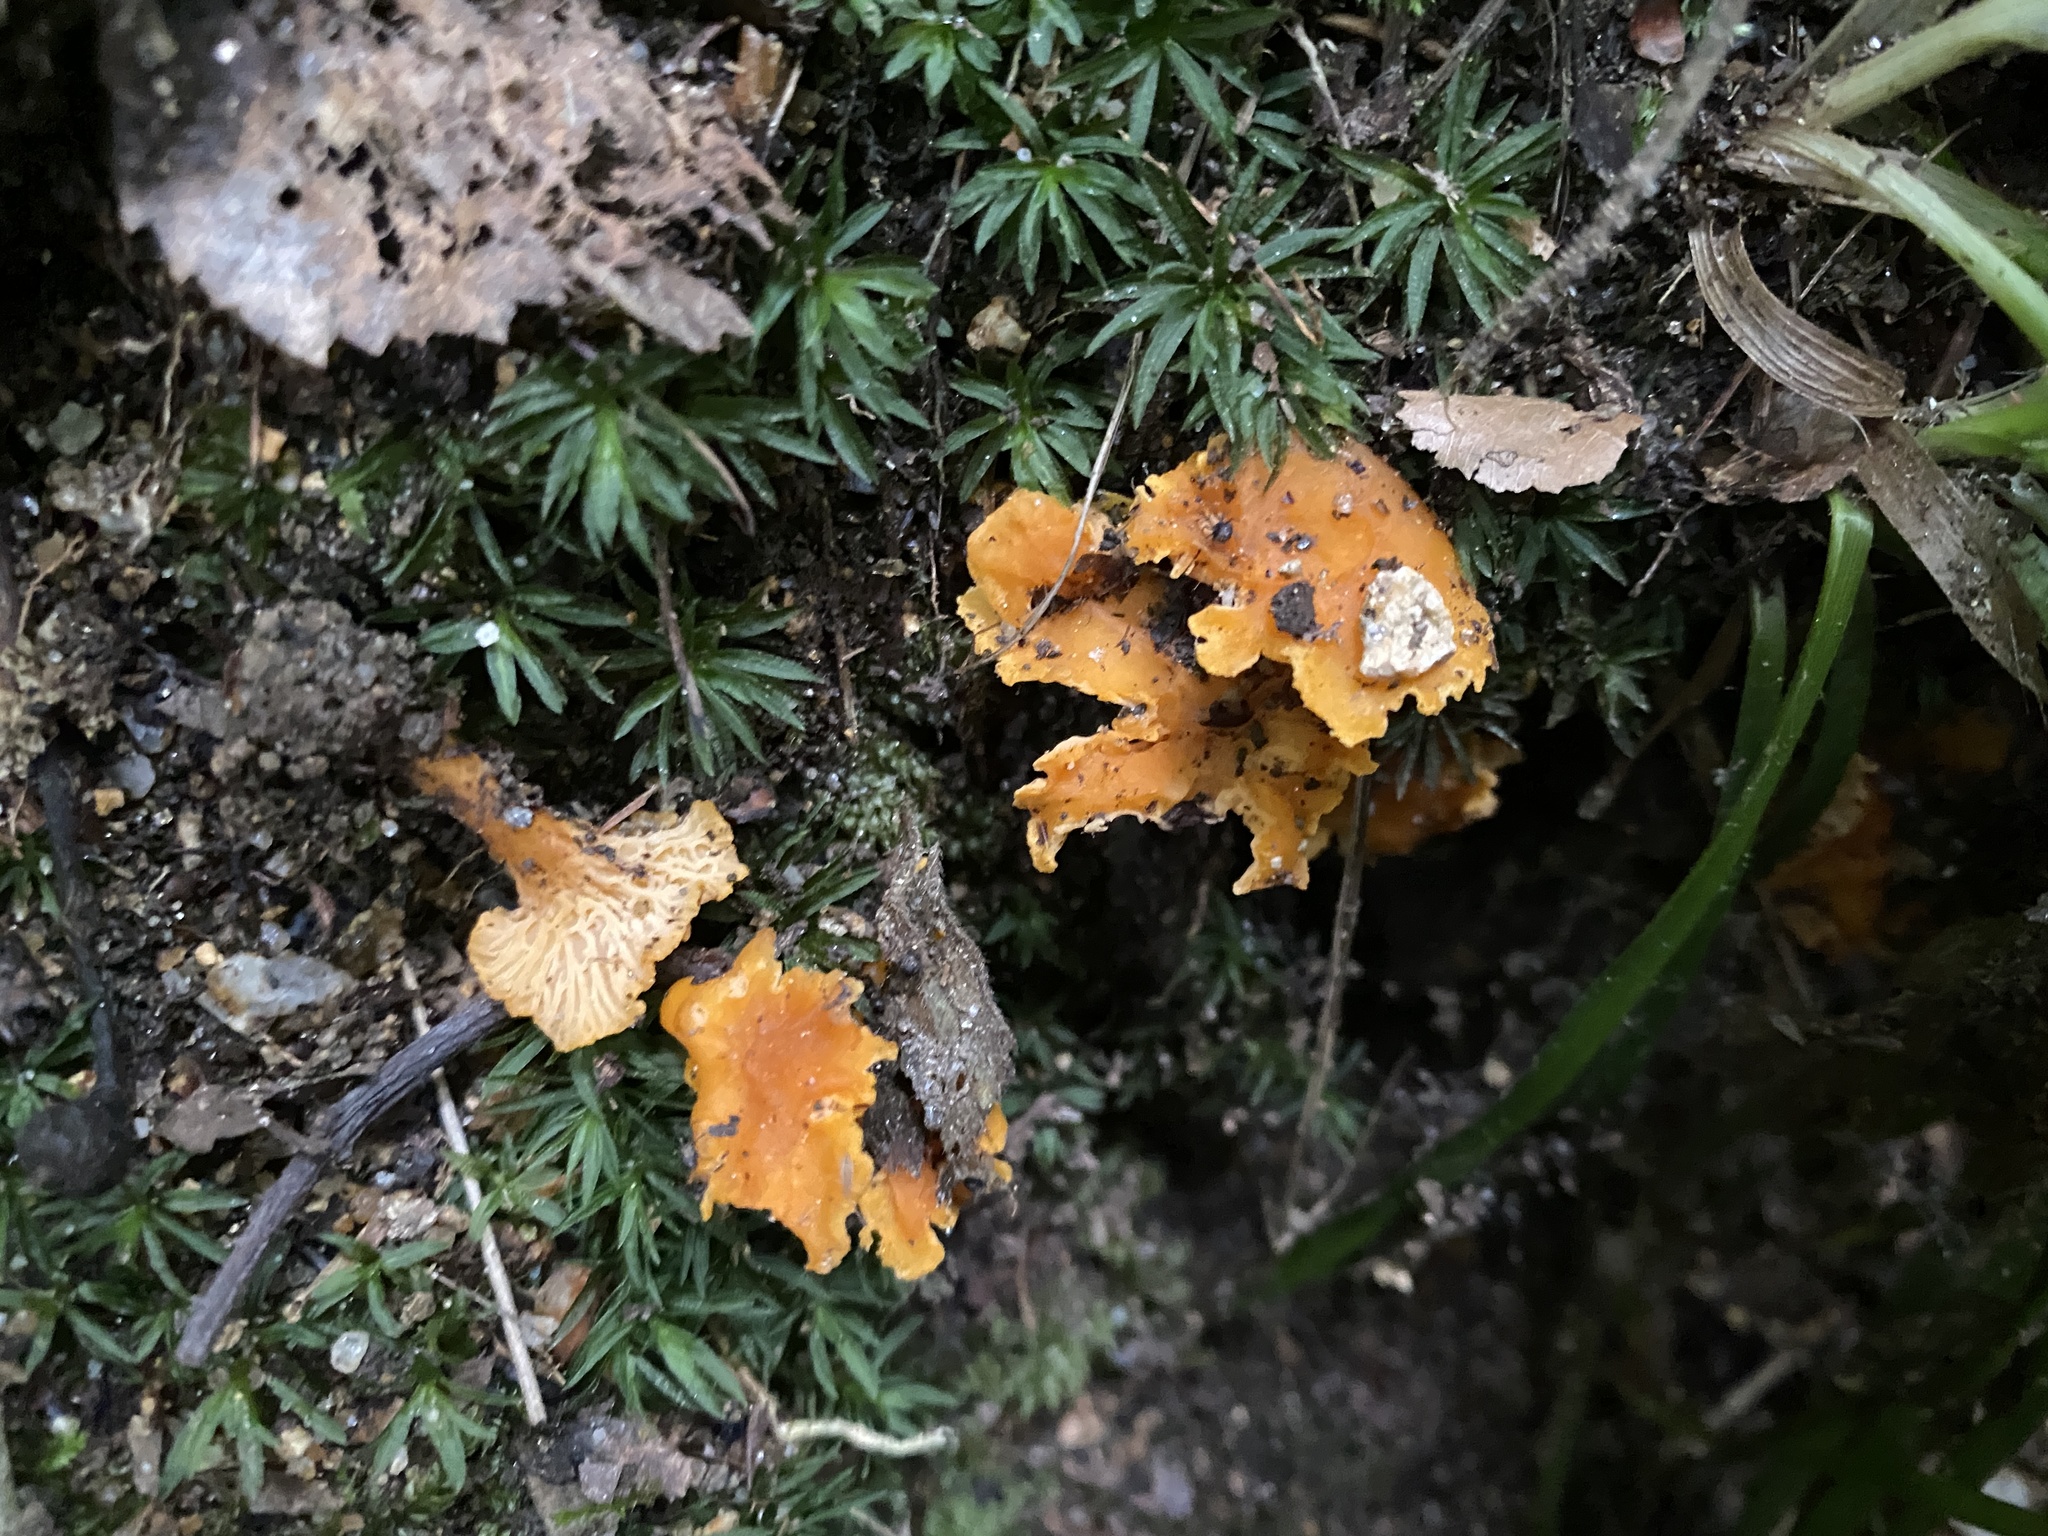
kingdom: Fungi
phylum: Basidiomycota
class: Agaricomycetes
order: Cantharellales
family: Hydnaceae
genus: Cantharellus
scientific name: Cantharellus friesii
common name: Orange chanterelle
